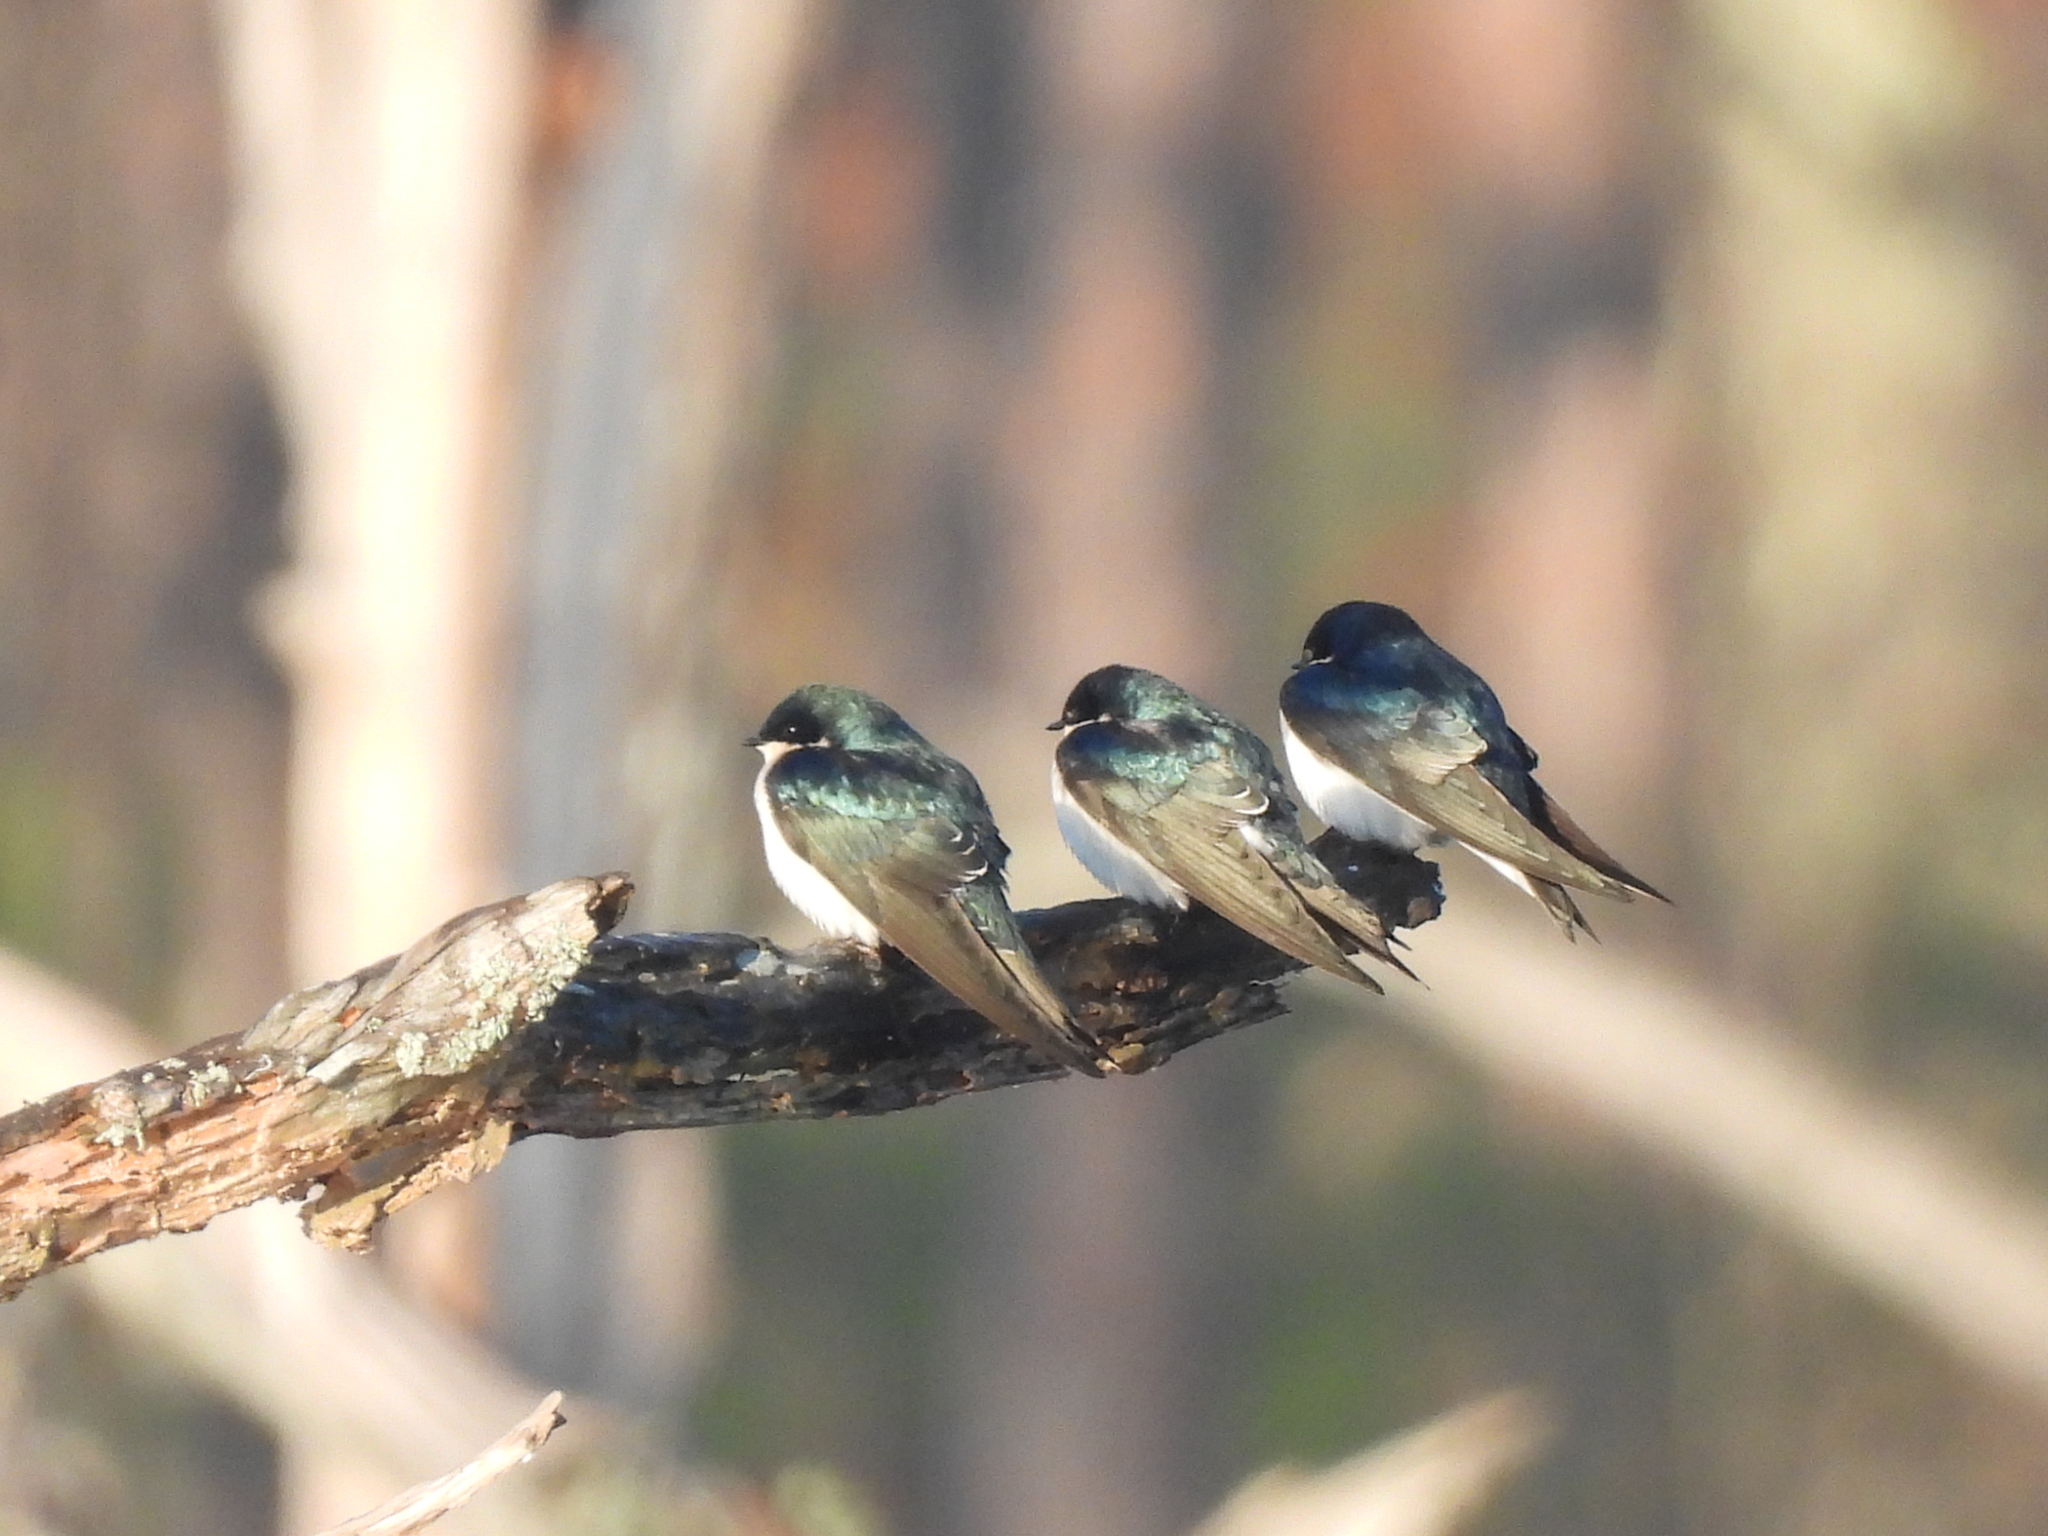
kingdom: Animalia
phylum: Chordata
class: Aves
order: Passeriformes
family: Hirundinidae
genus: Tachycineta
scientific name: Tachycineta bicolor
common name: Tree swallow
